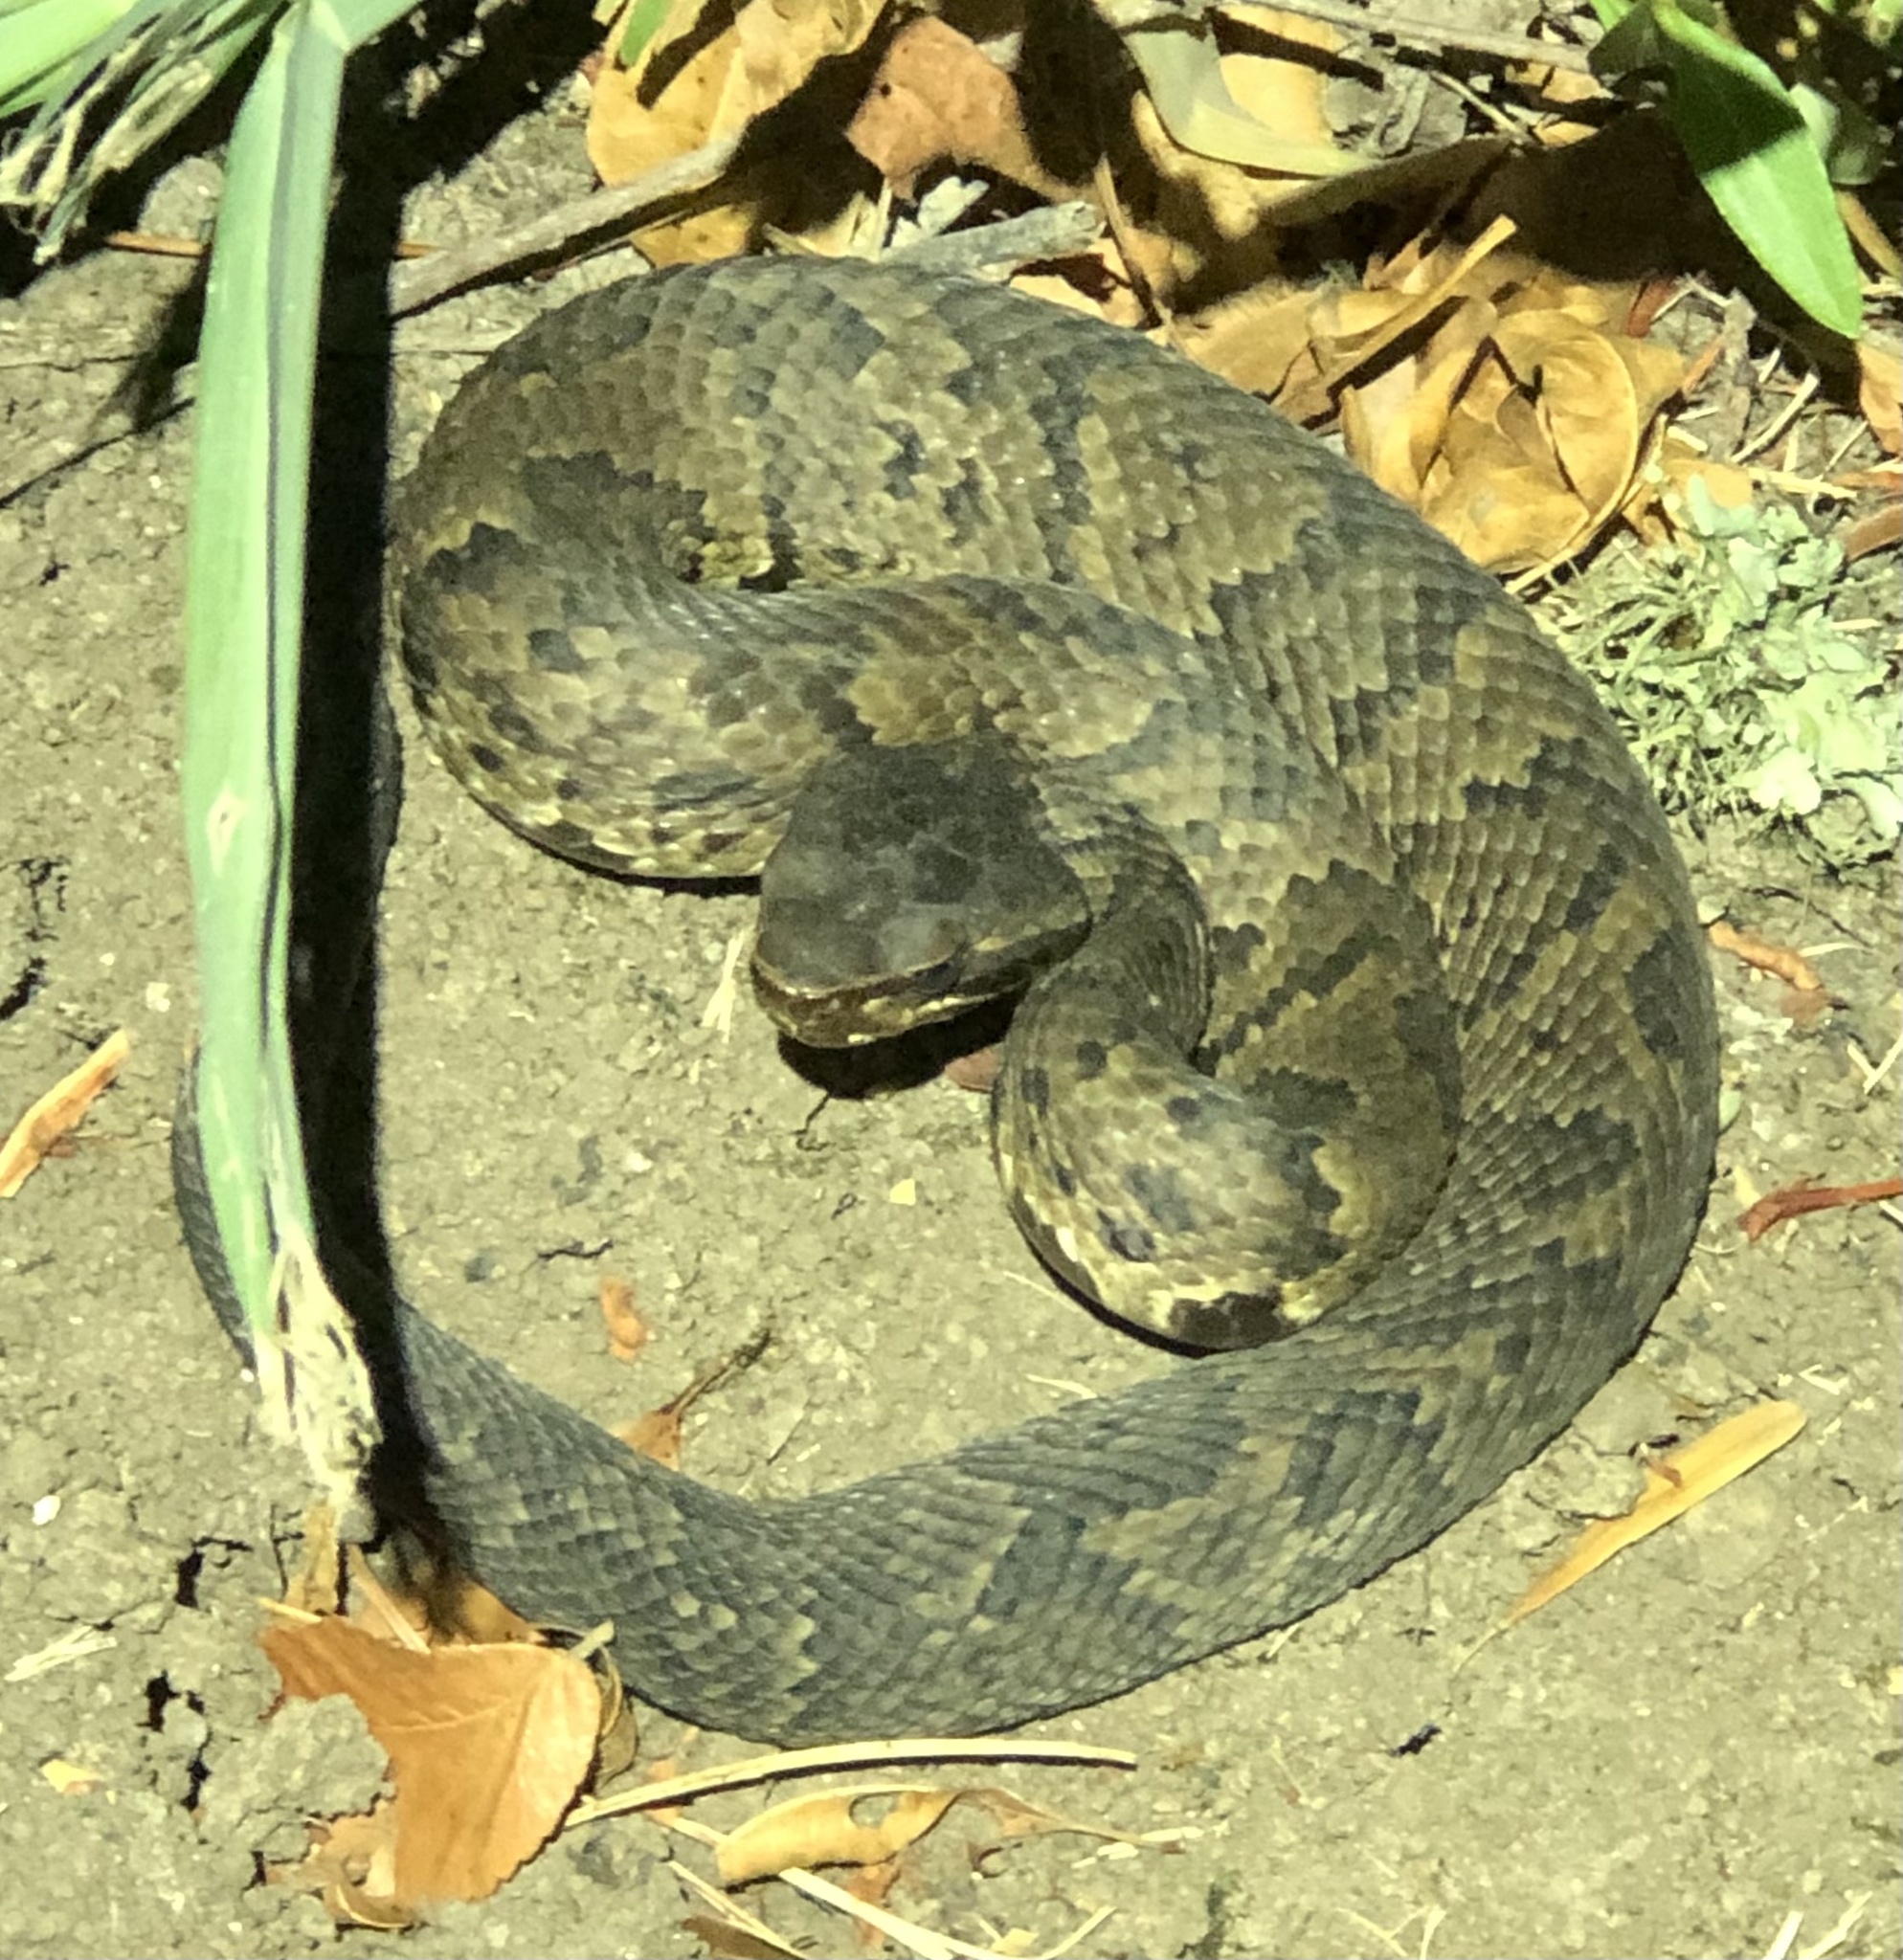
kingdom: Animalia
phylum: Chordata
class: Squamata
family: Viperidae
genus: Agkistrodon
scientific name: Agkistrodon piscivorus
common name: Cottonmouth
